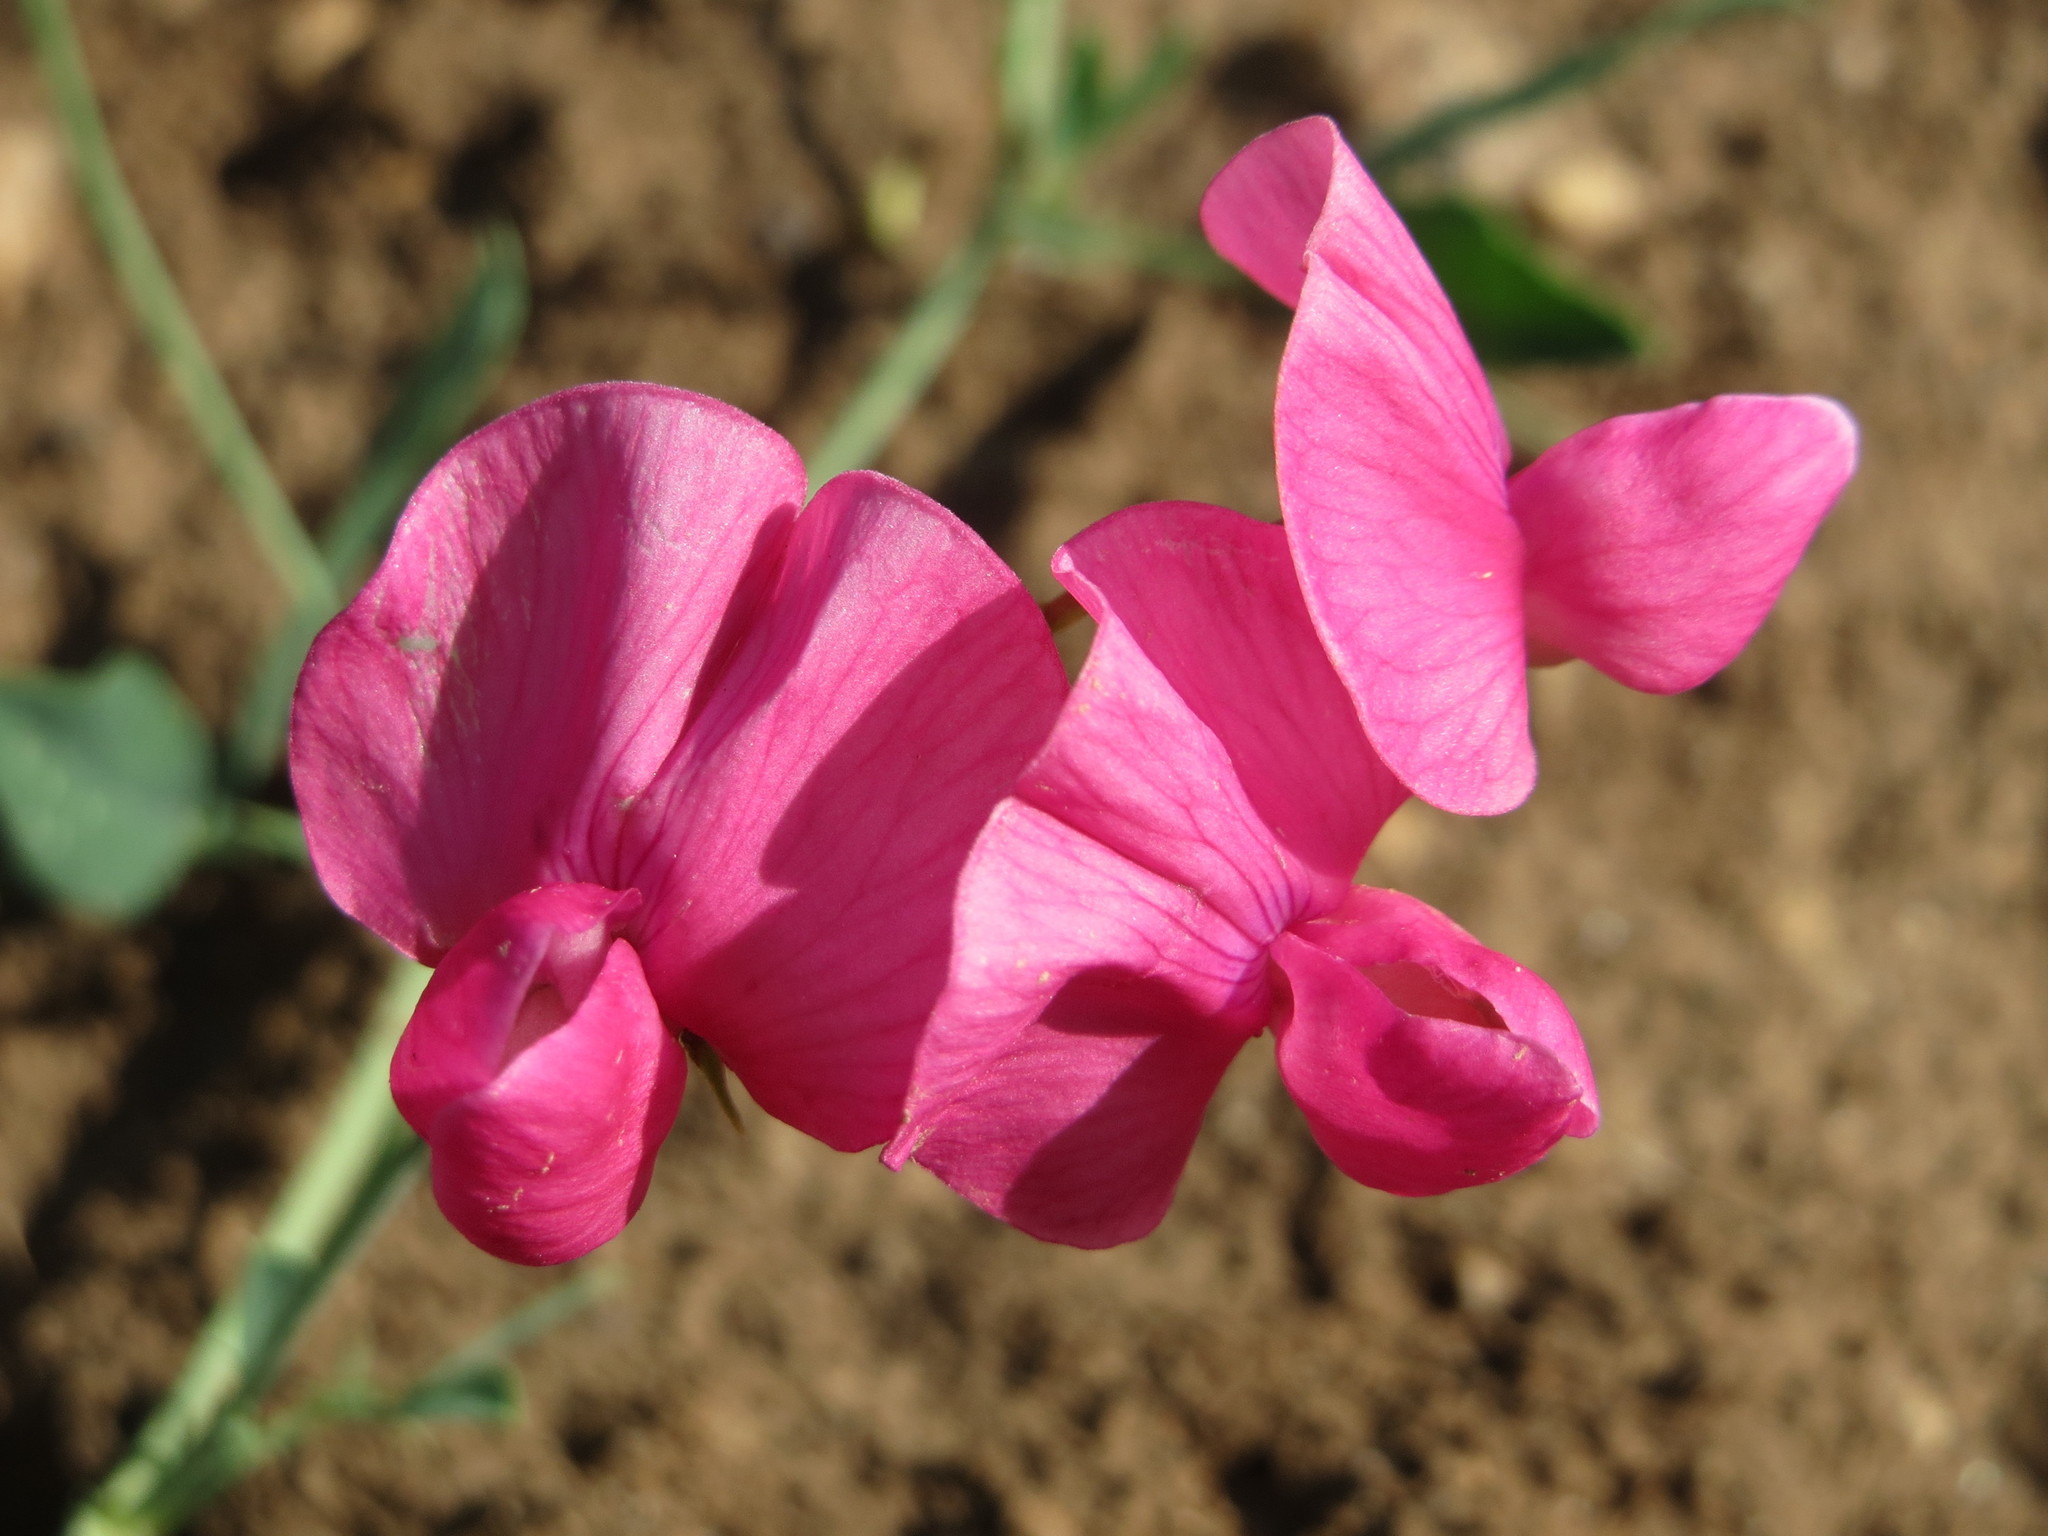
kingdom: Plantae
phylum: Tracheophyta
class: Magnoliopsida
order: Fabales
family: Fabaceae
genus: Lathyrus
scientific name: Lathyrus tuberosus
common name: Tuberous pea
